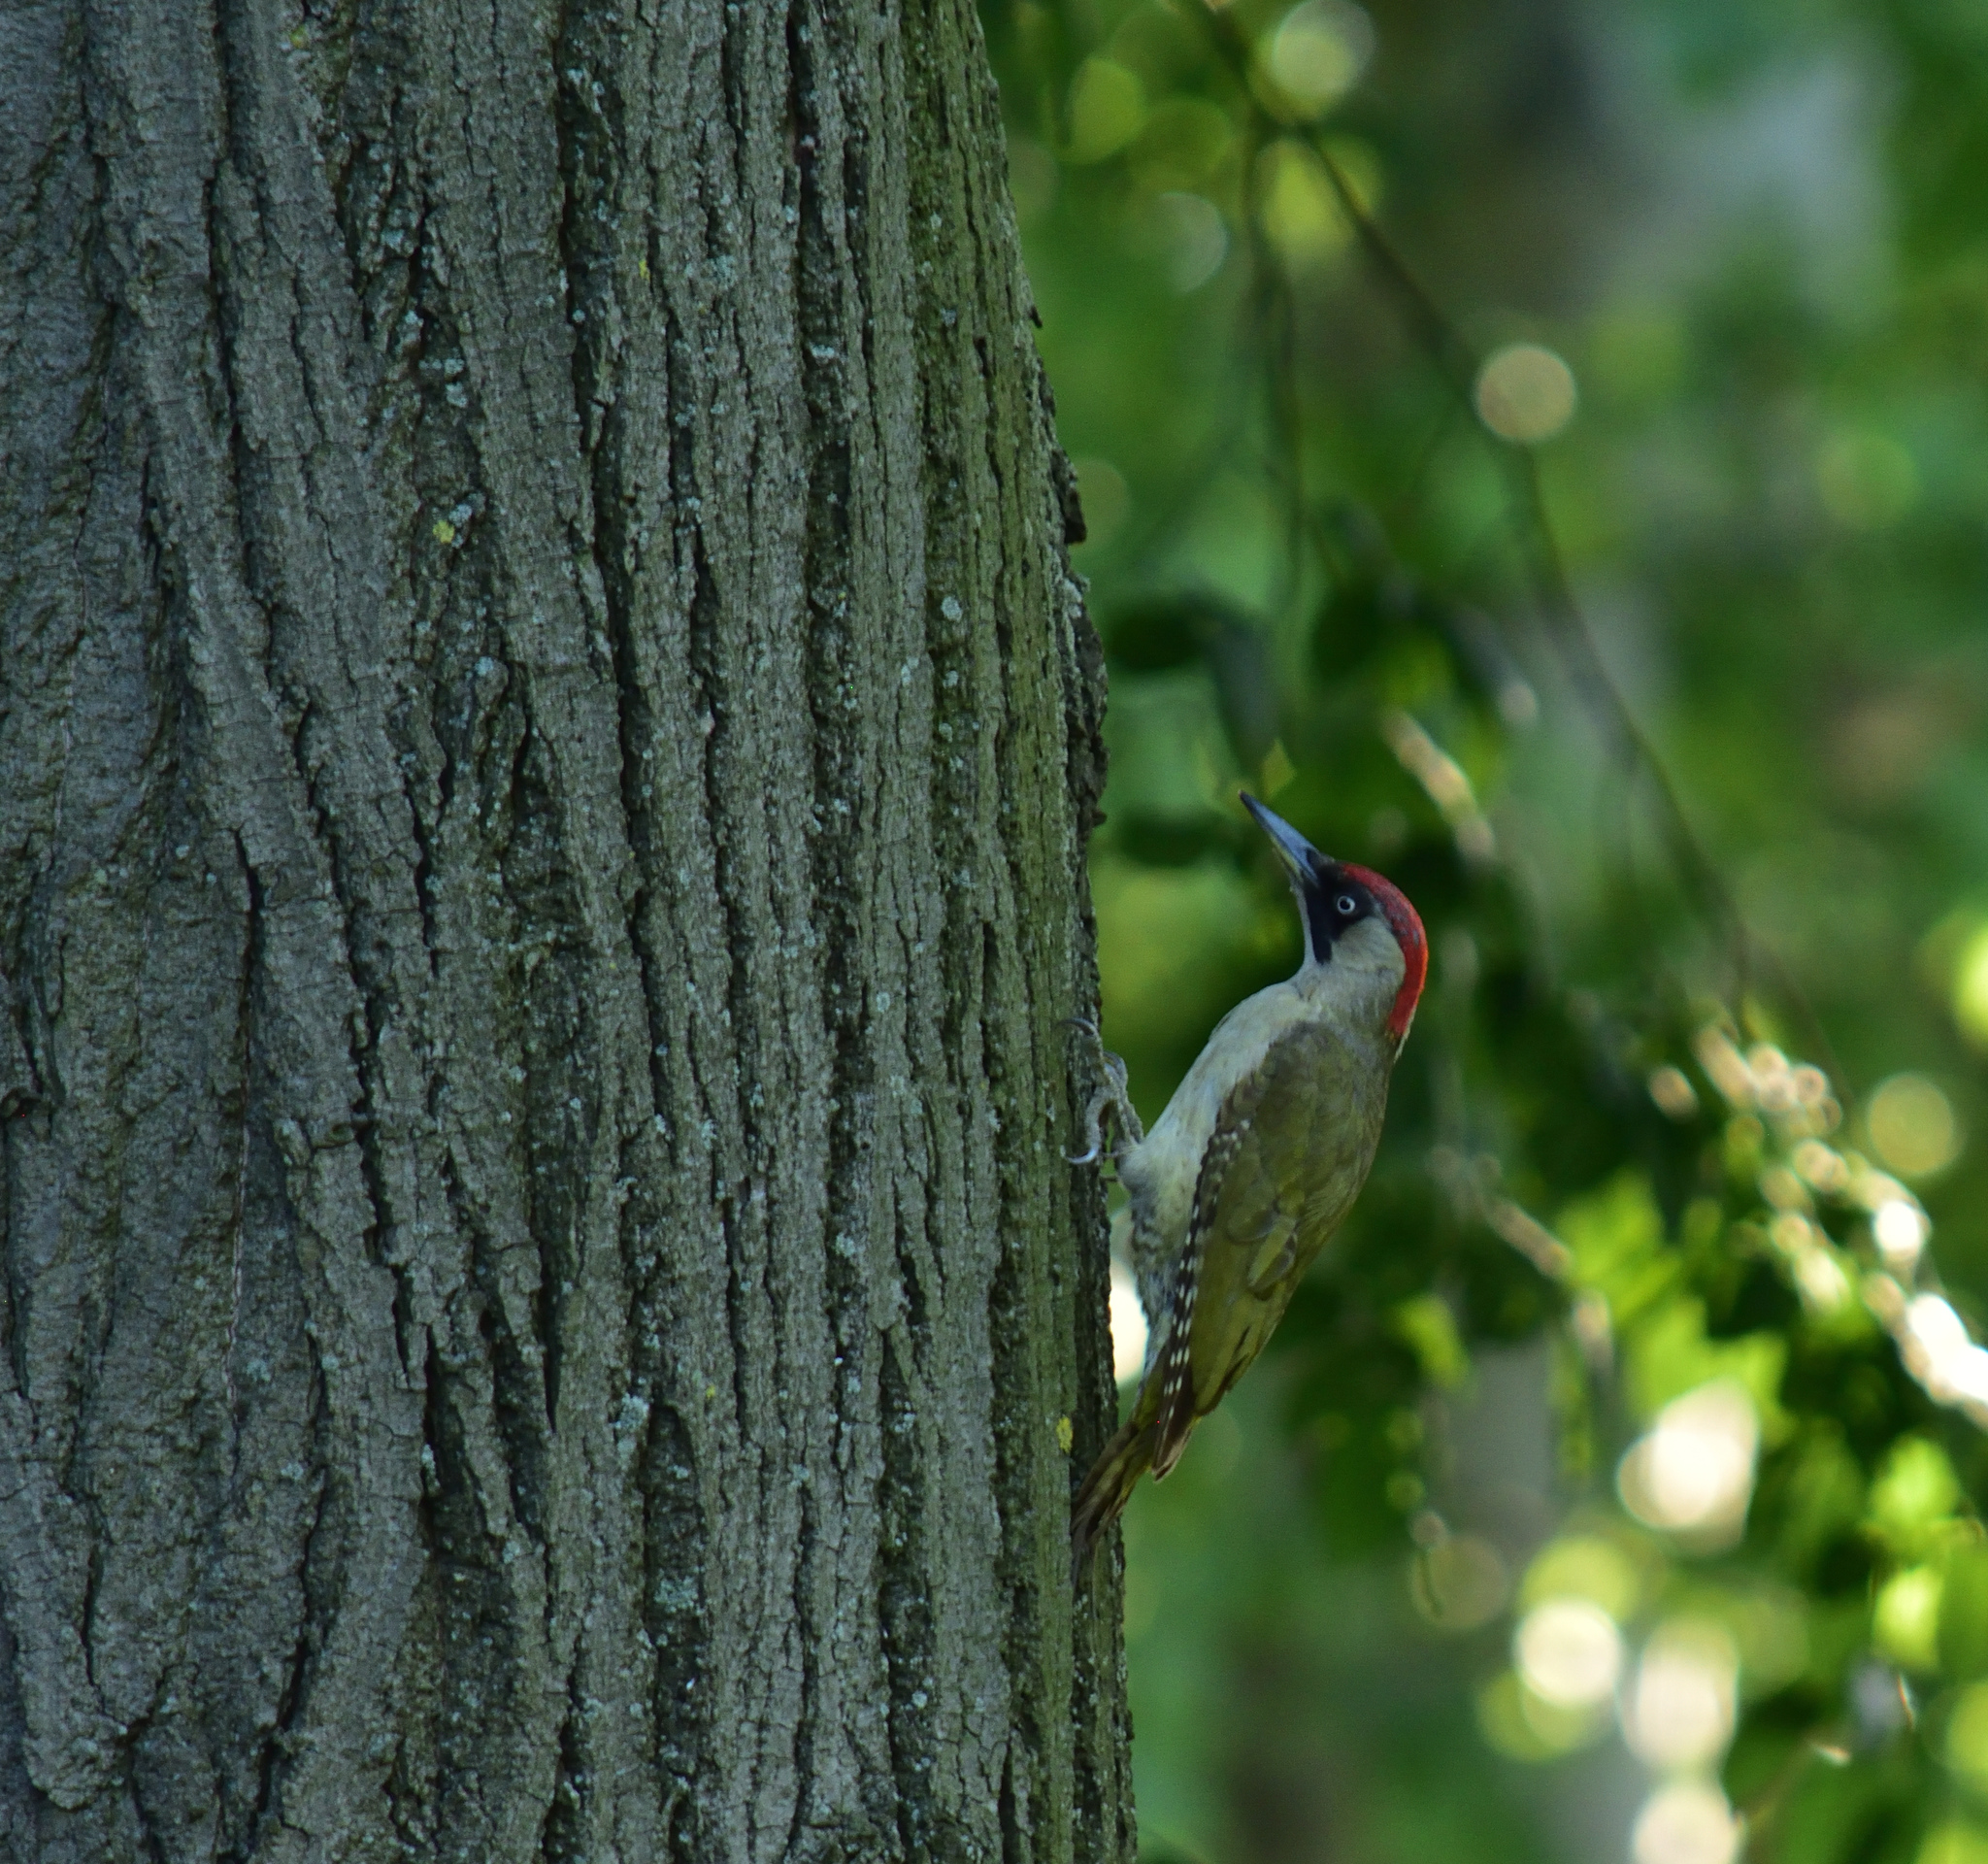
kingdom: Animalia
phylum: Chordata
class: Aves
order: Piciformes
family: Picidae
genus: Picus
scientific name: Picus viridis
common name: European green woodpecker
